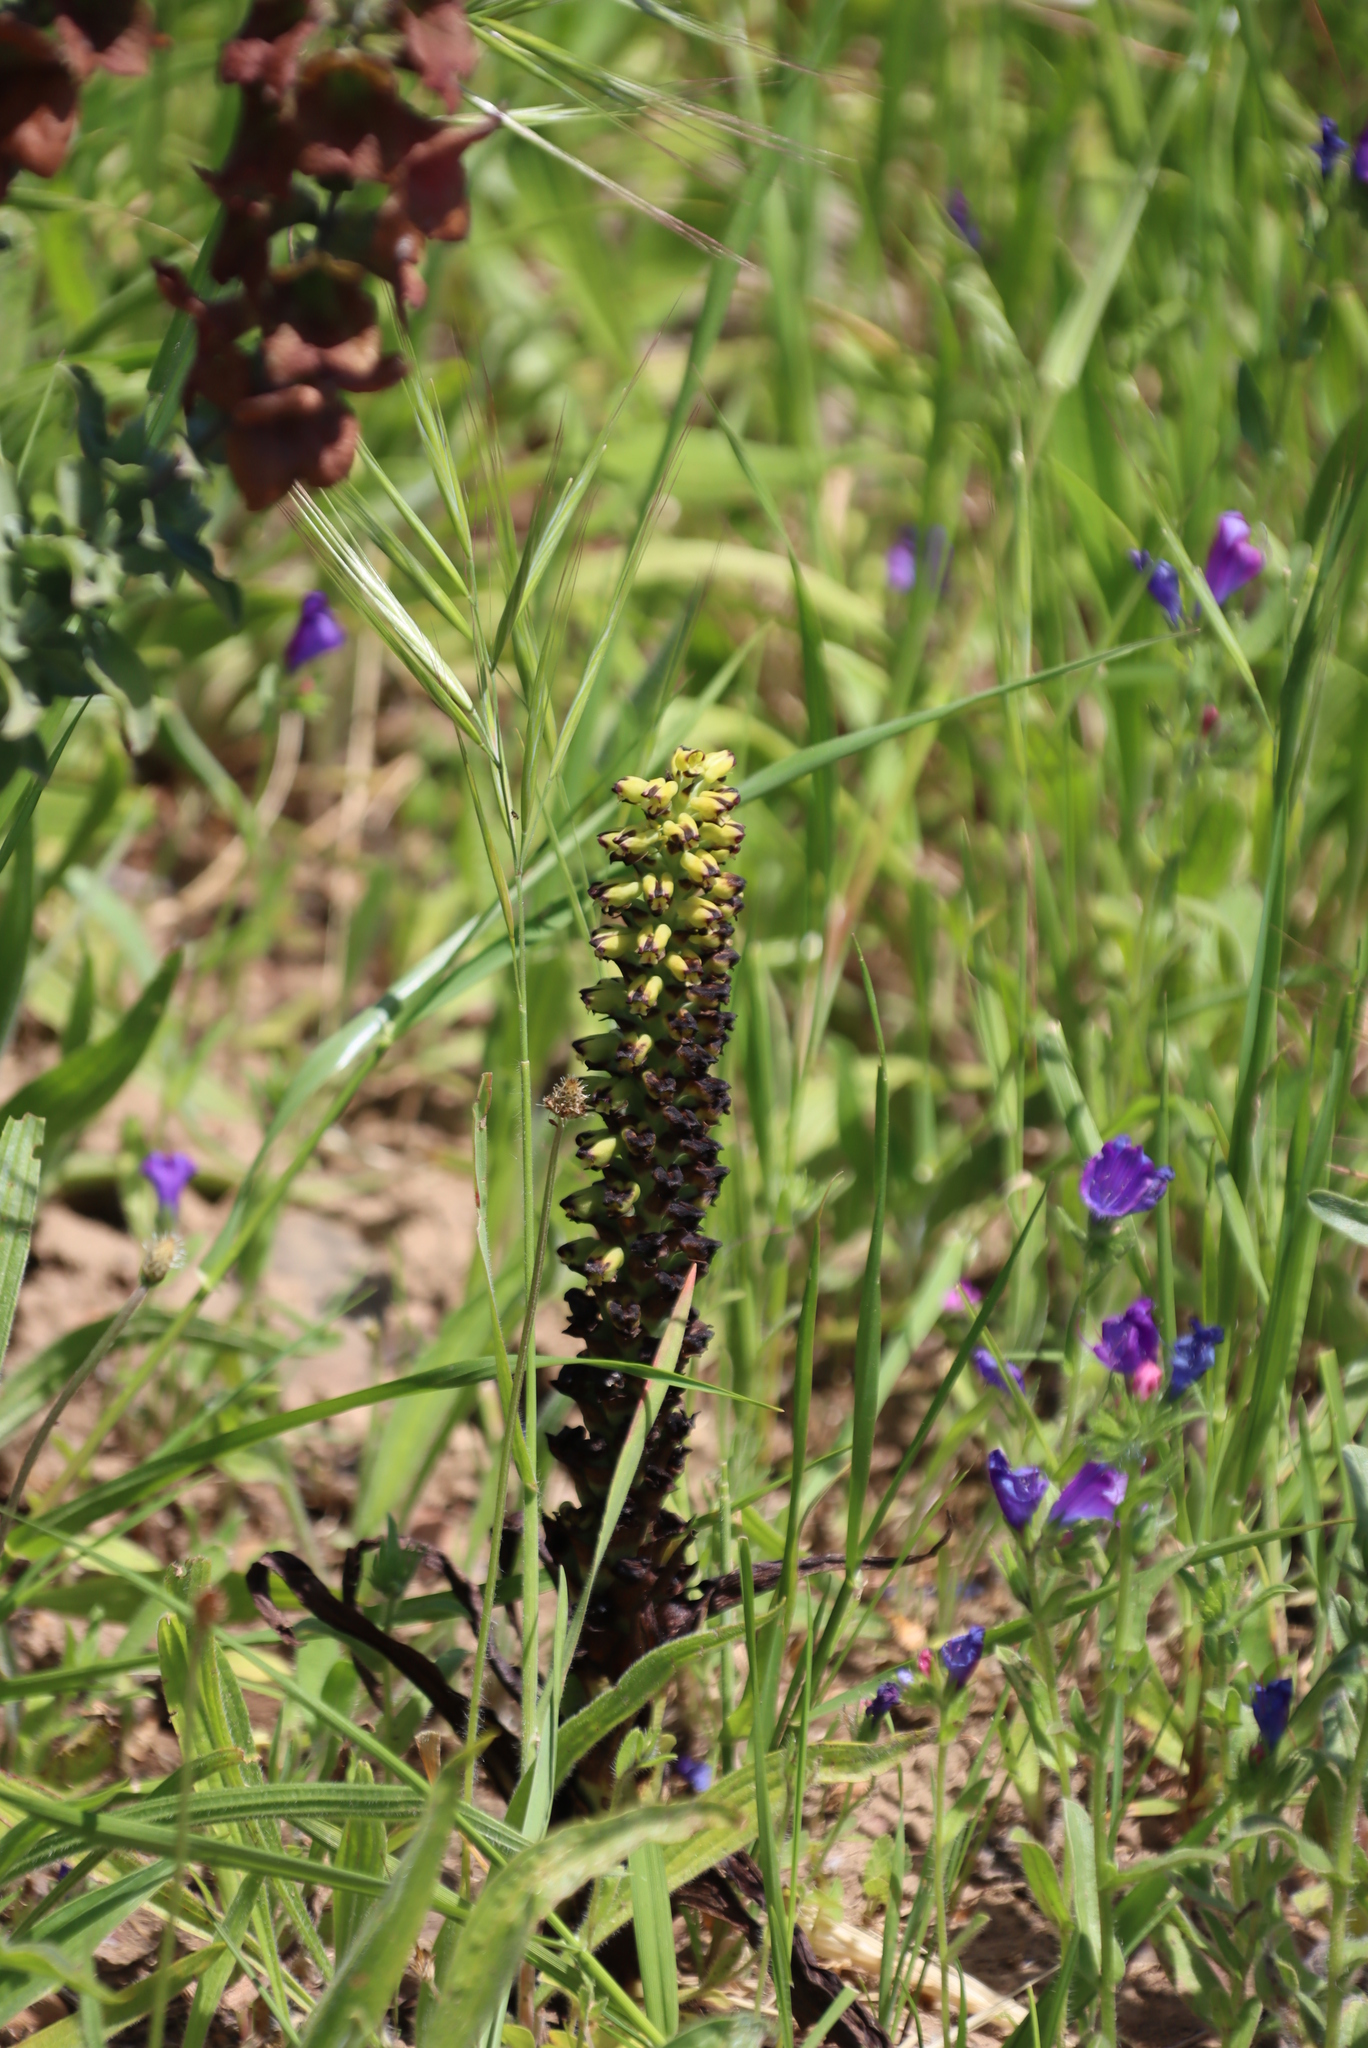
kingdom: Plantae
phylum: Tracheophyta
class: Liliopsida
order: Asparagales
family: Orchidaceae
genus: Corycium
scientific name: Corycium orobanchoides
